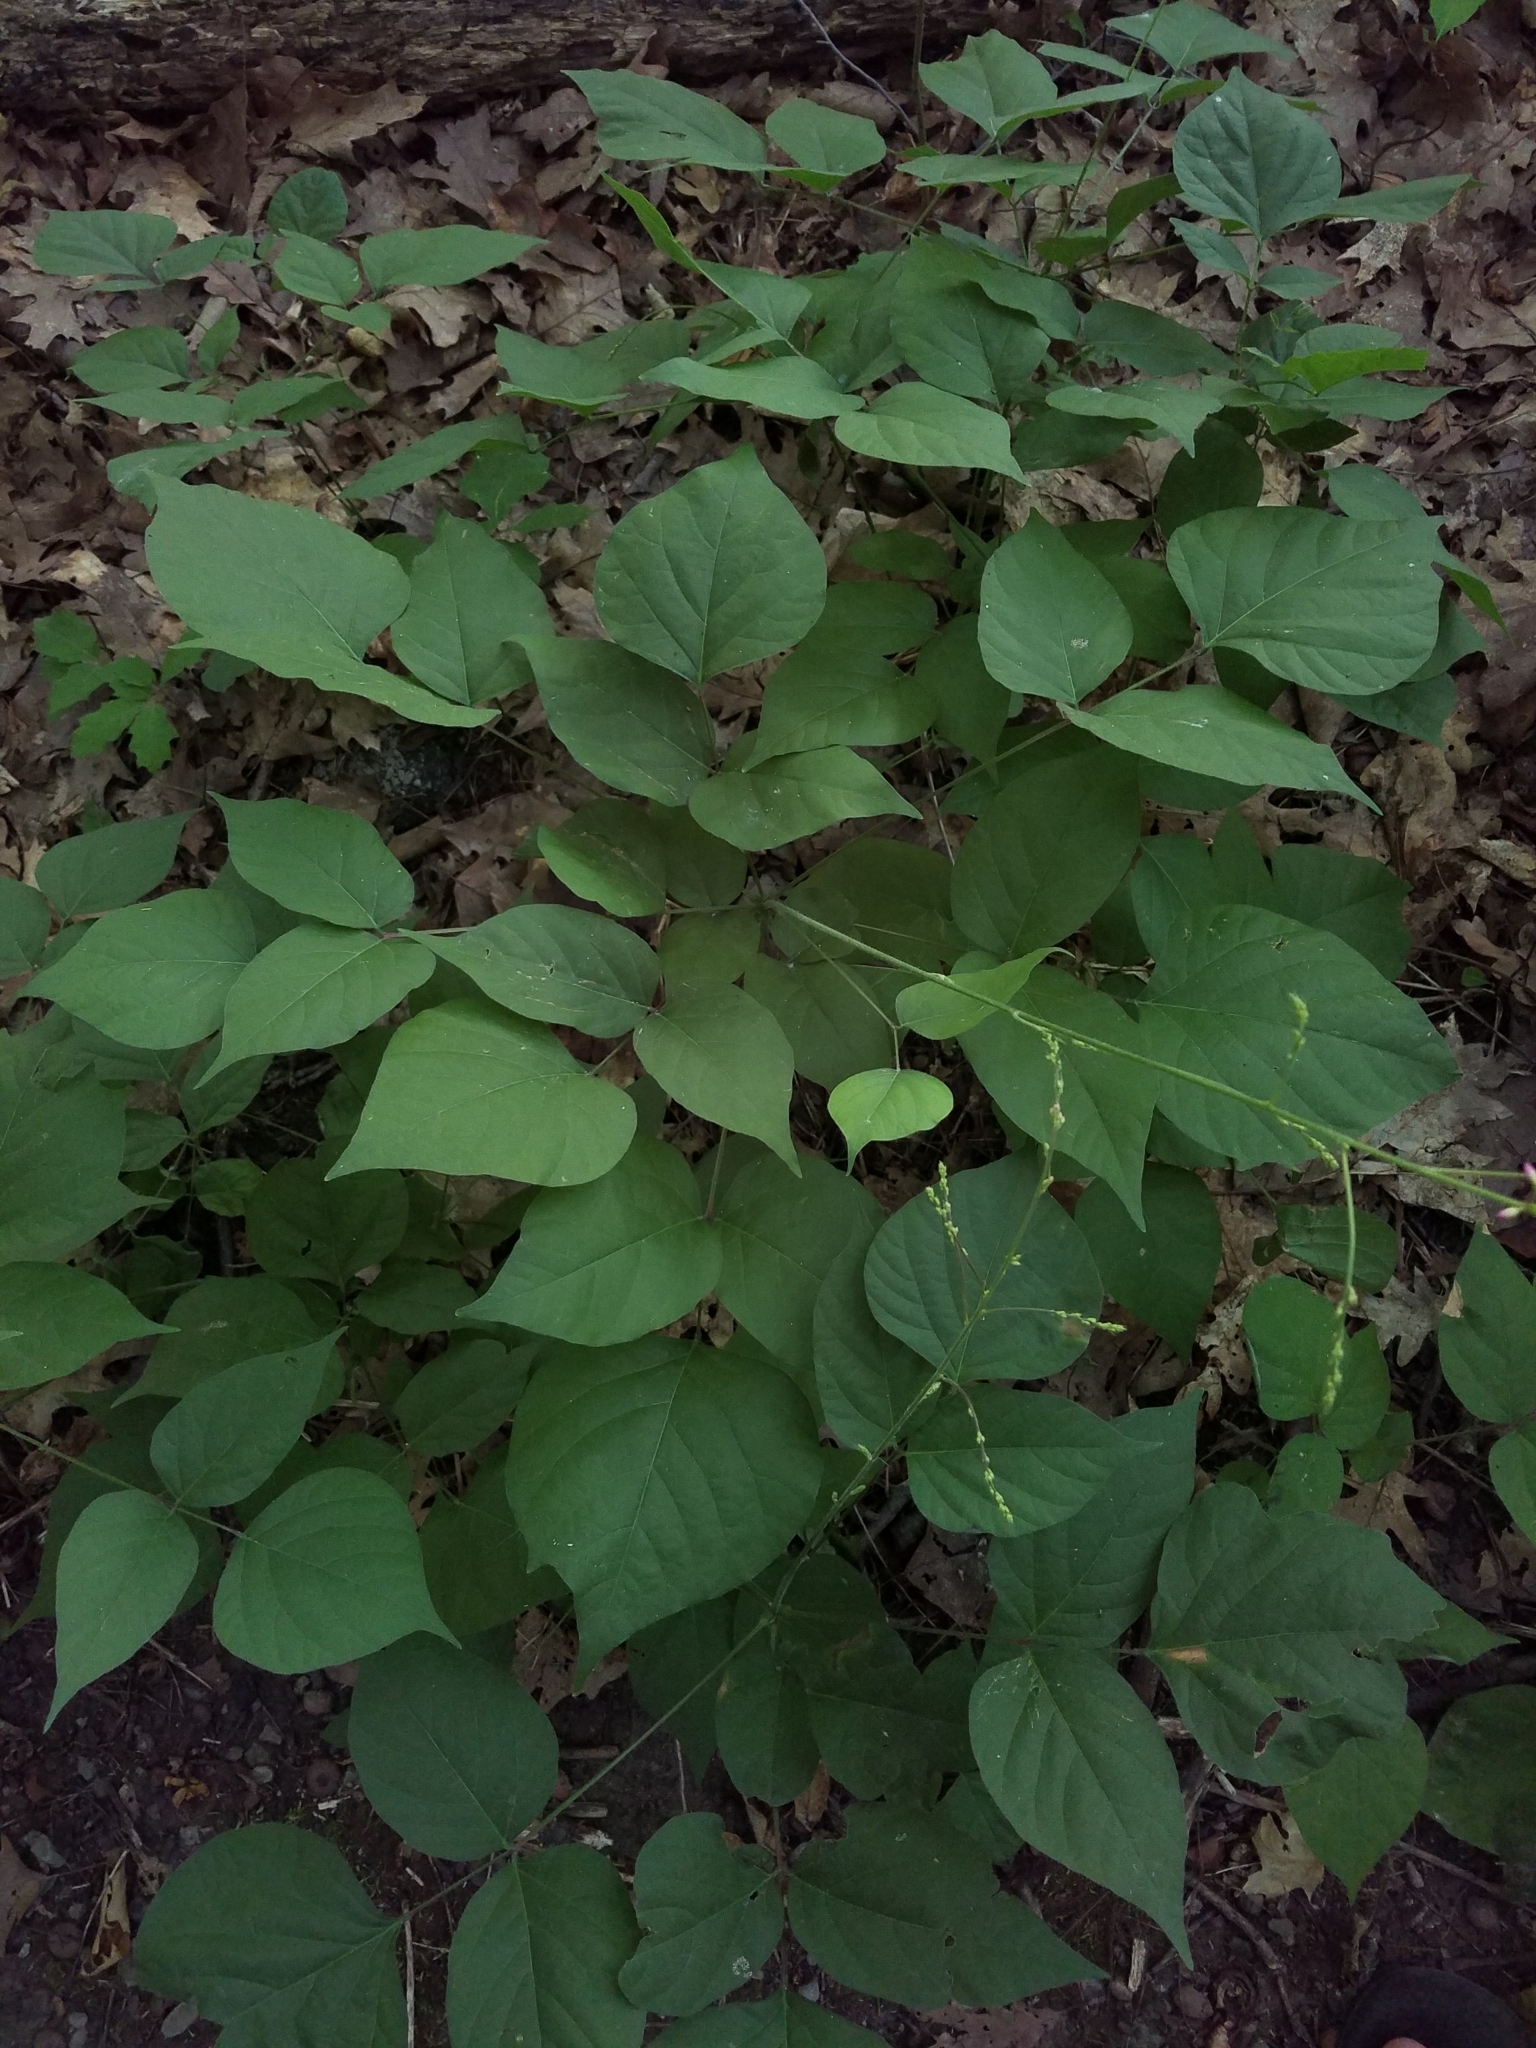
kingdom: Plantae
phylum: Tracheophyta
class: Magnoliopsida
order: Fabales
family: Fabaceae
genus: Hylodesmum
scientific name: Hylodesmum glutinosum
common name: Clustered-leaved tick-trefoil
